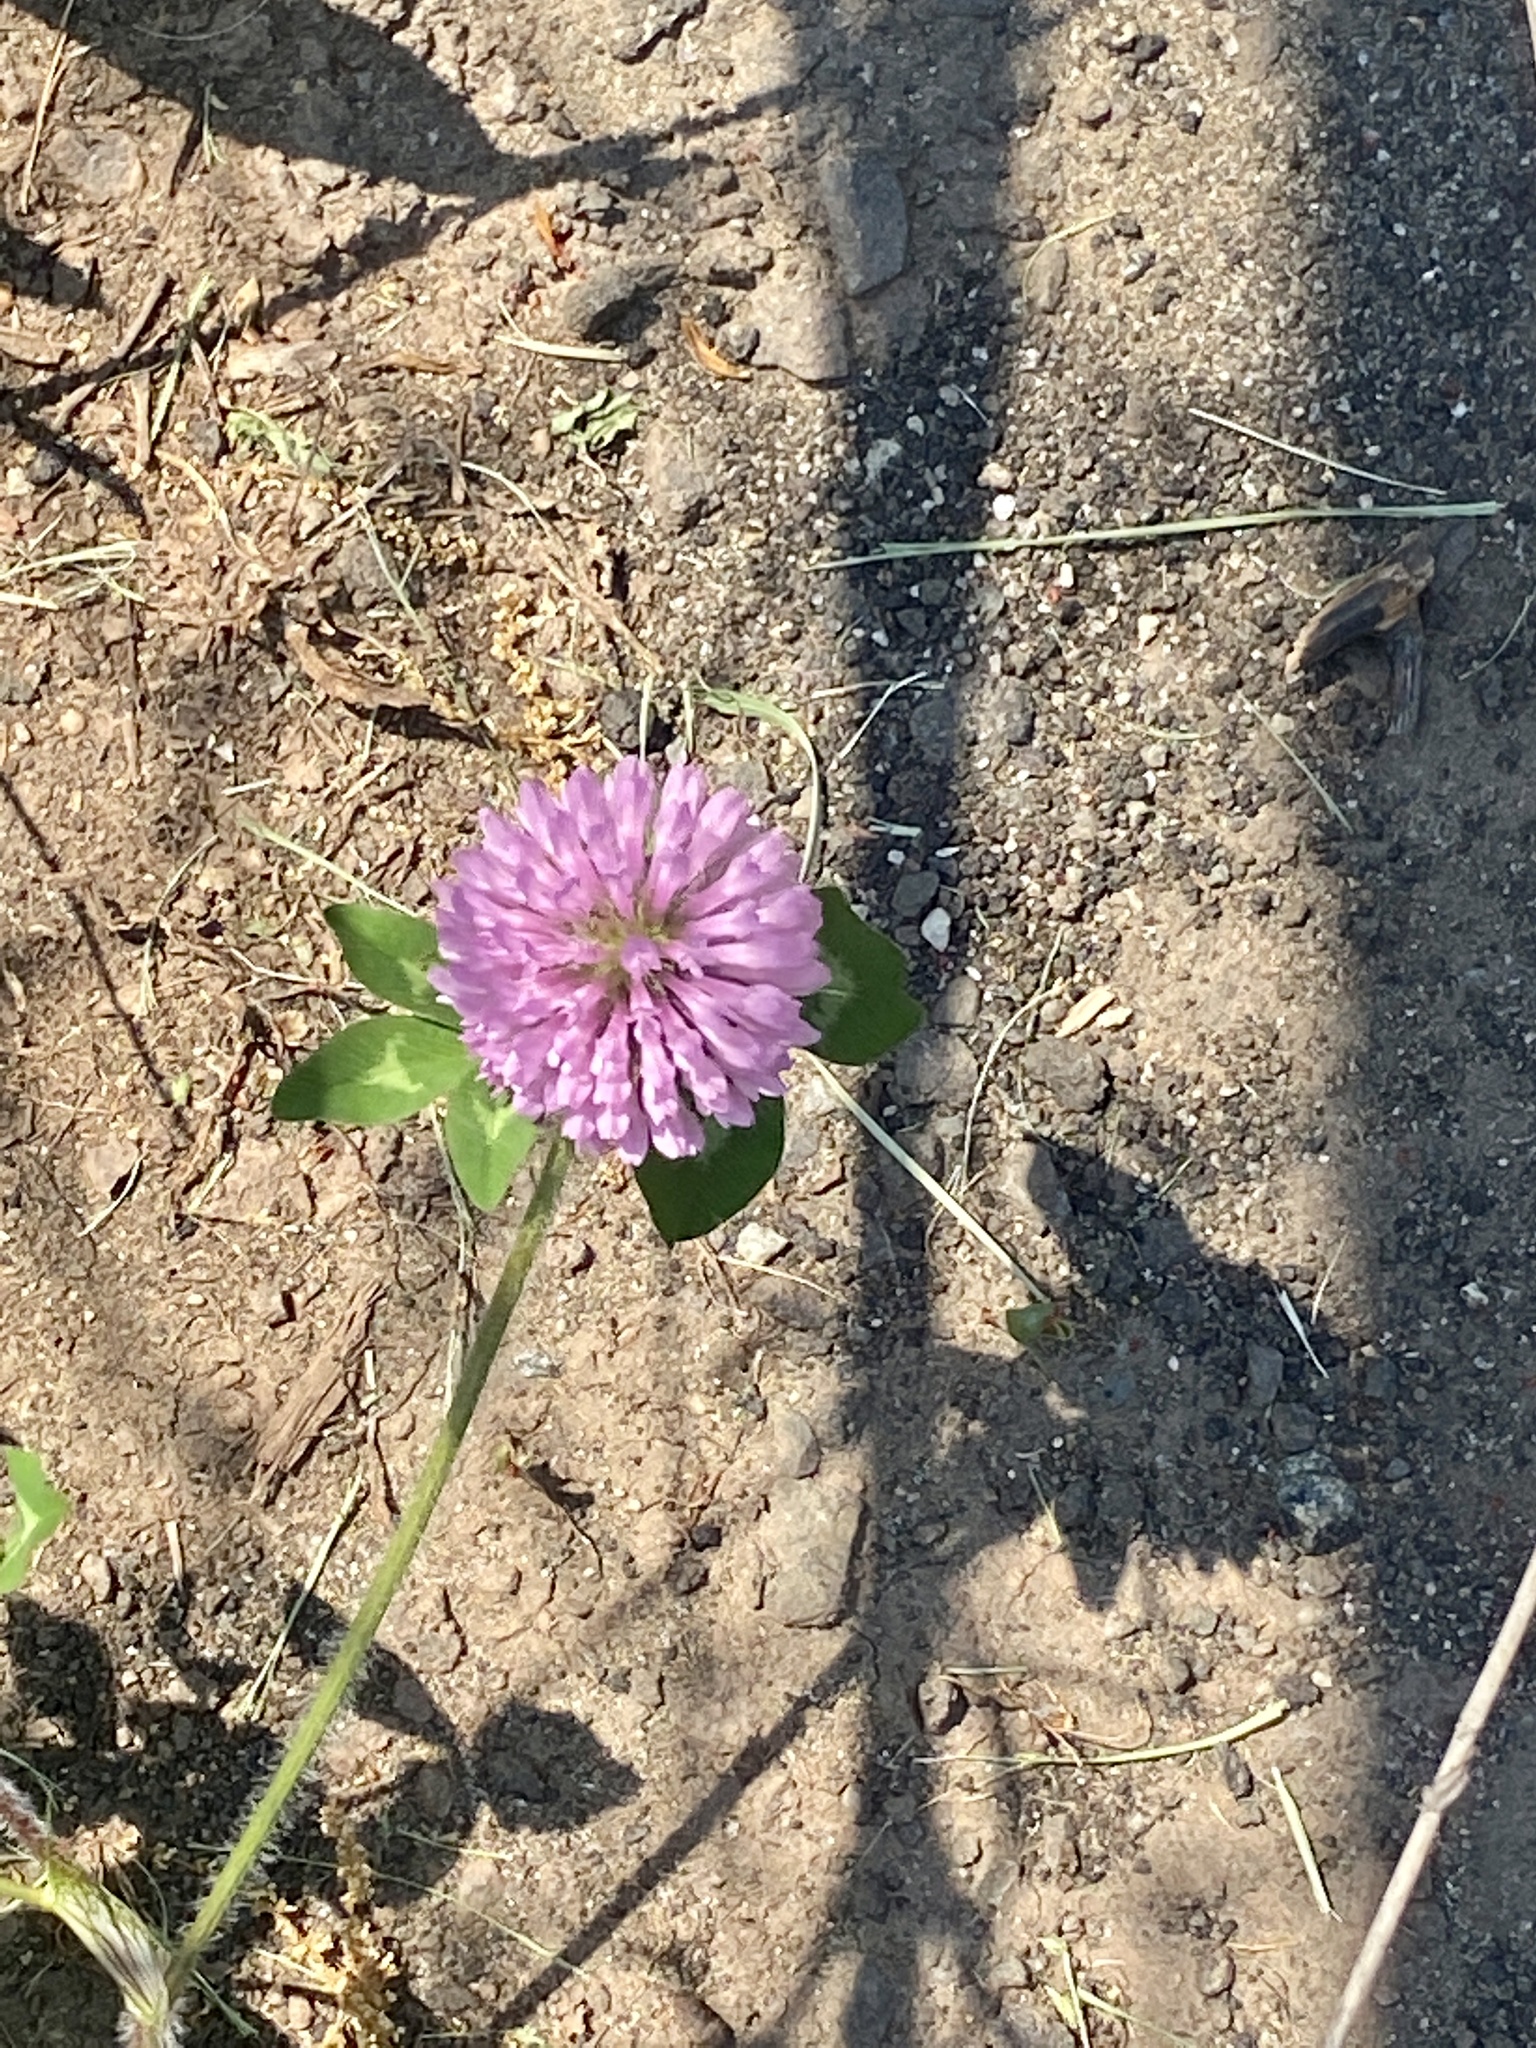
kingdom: Plantae
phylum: Tracheophyta
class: Magnoliopsida
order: Fabales
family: Fabaceae
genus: Trifolium
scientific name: Trifolium pratense
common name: Red clover
